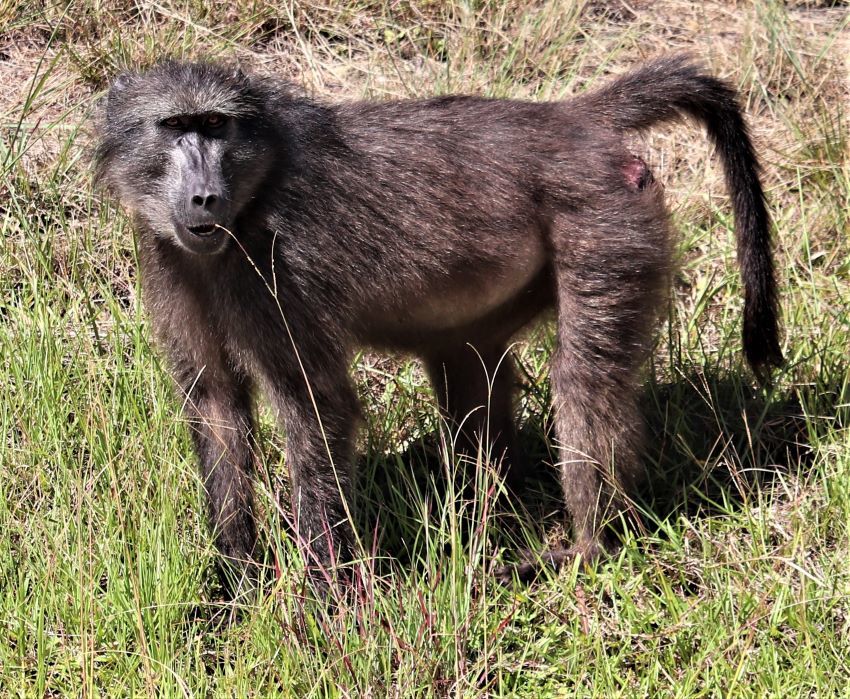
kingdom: Animalia
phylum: Chordata
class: Mammalia
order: Primates
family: Cercopithecidae
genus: Papio
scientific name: Papio ursinus
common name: Chacma baboon
